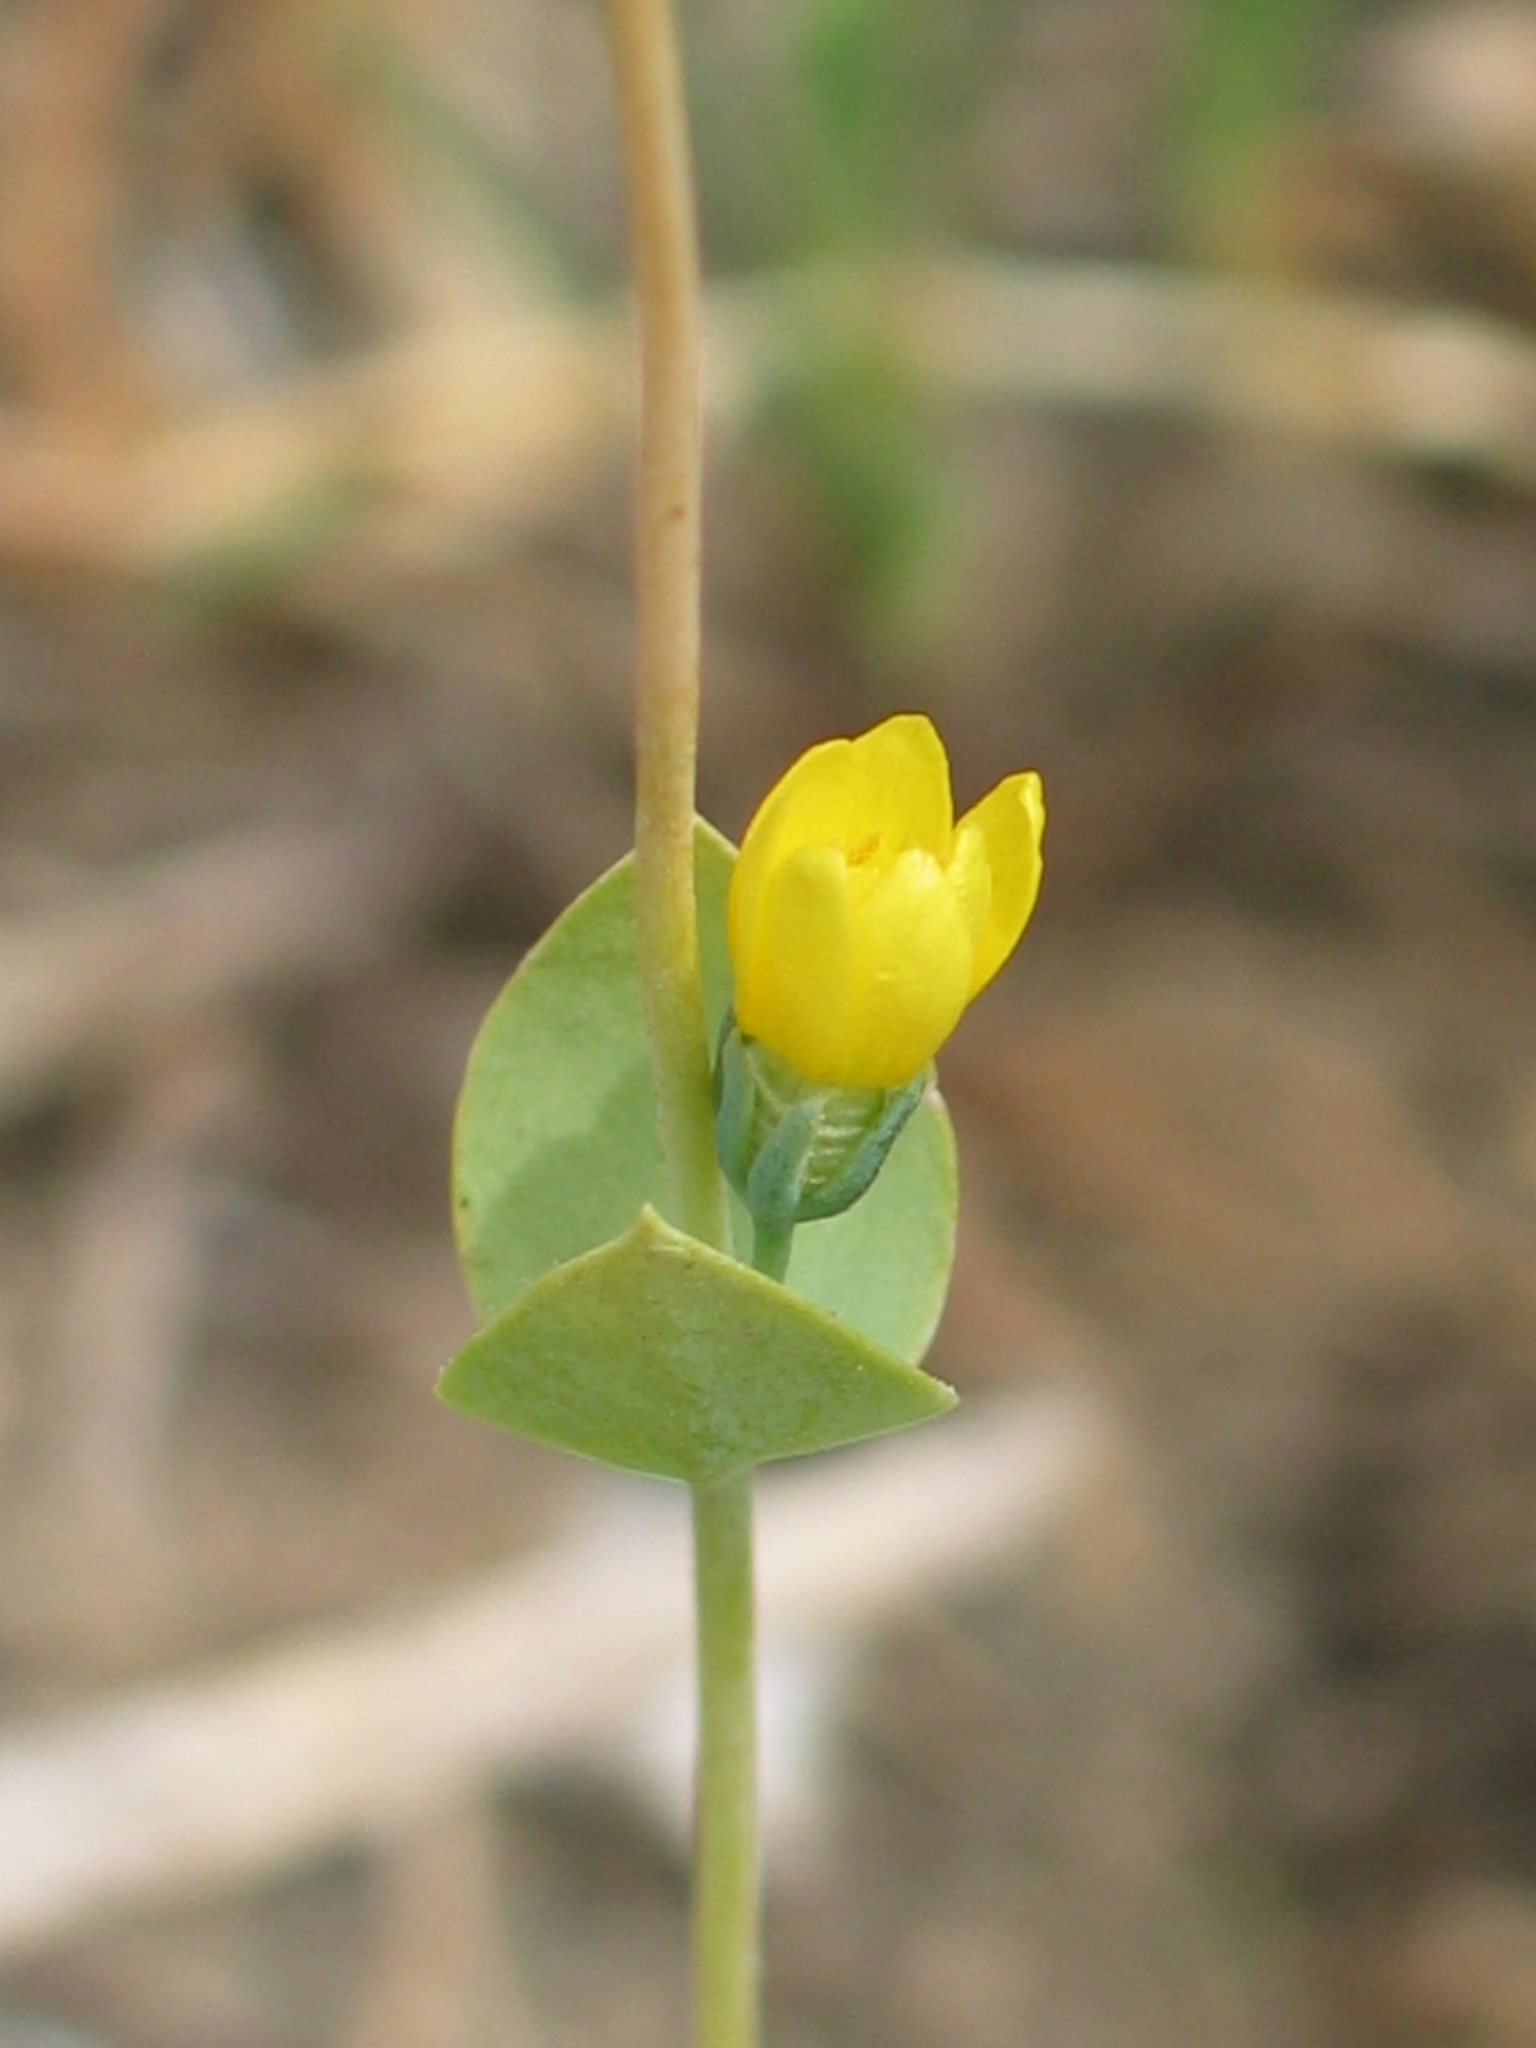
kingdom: Plantae
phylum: Tracheophyta
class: Magnoliopsida
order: Gentianales
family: Gentianaceae
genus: Blackstonia
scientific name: Blackstonia perfoliata
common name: Yellow-wort
